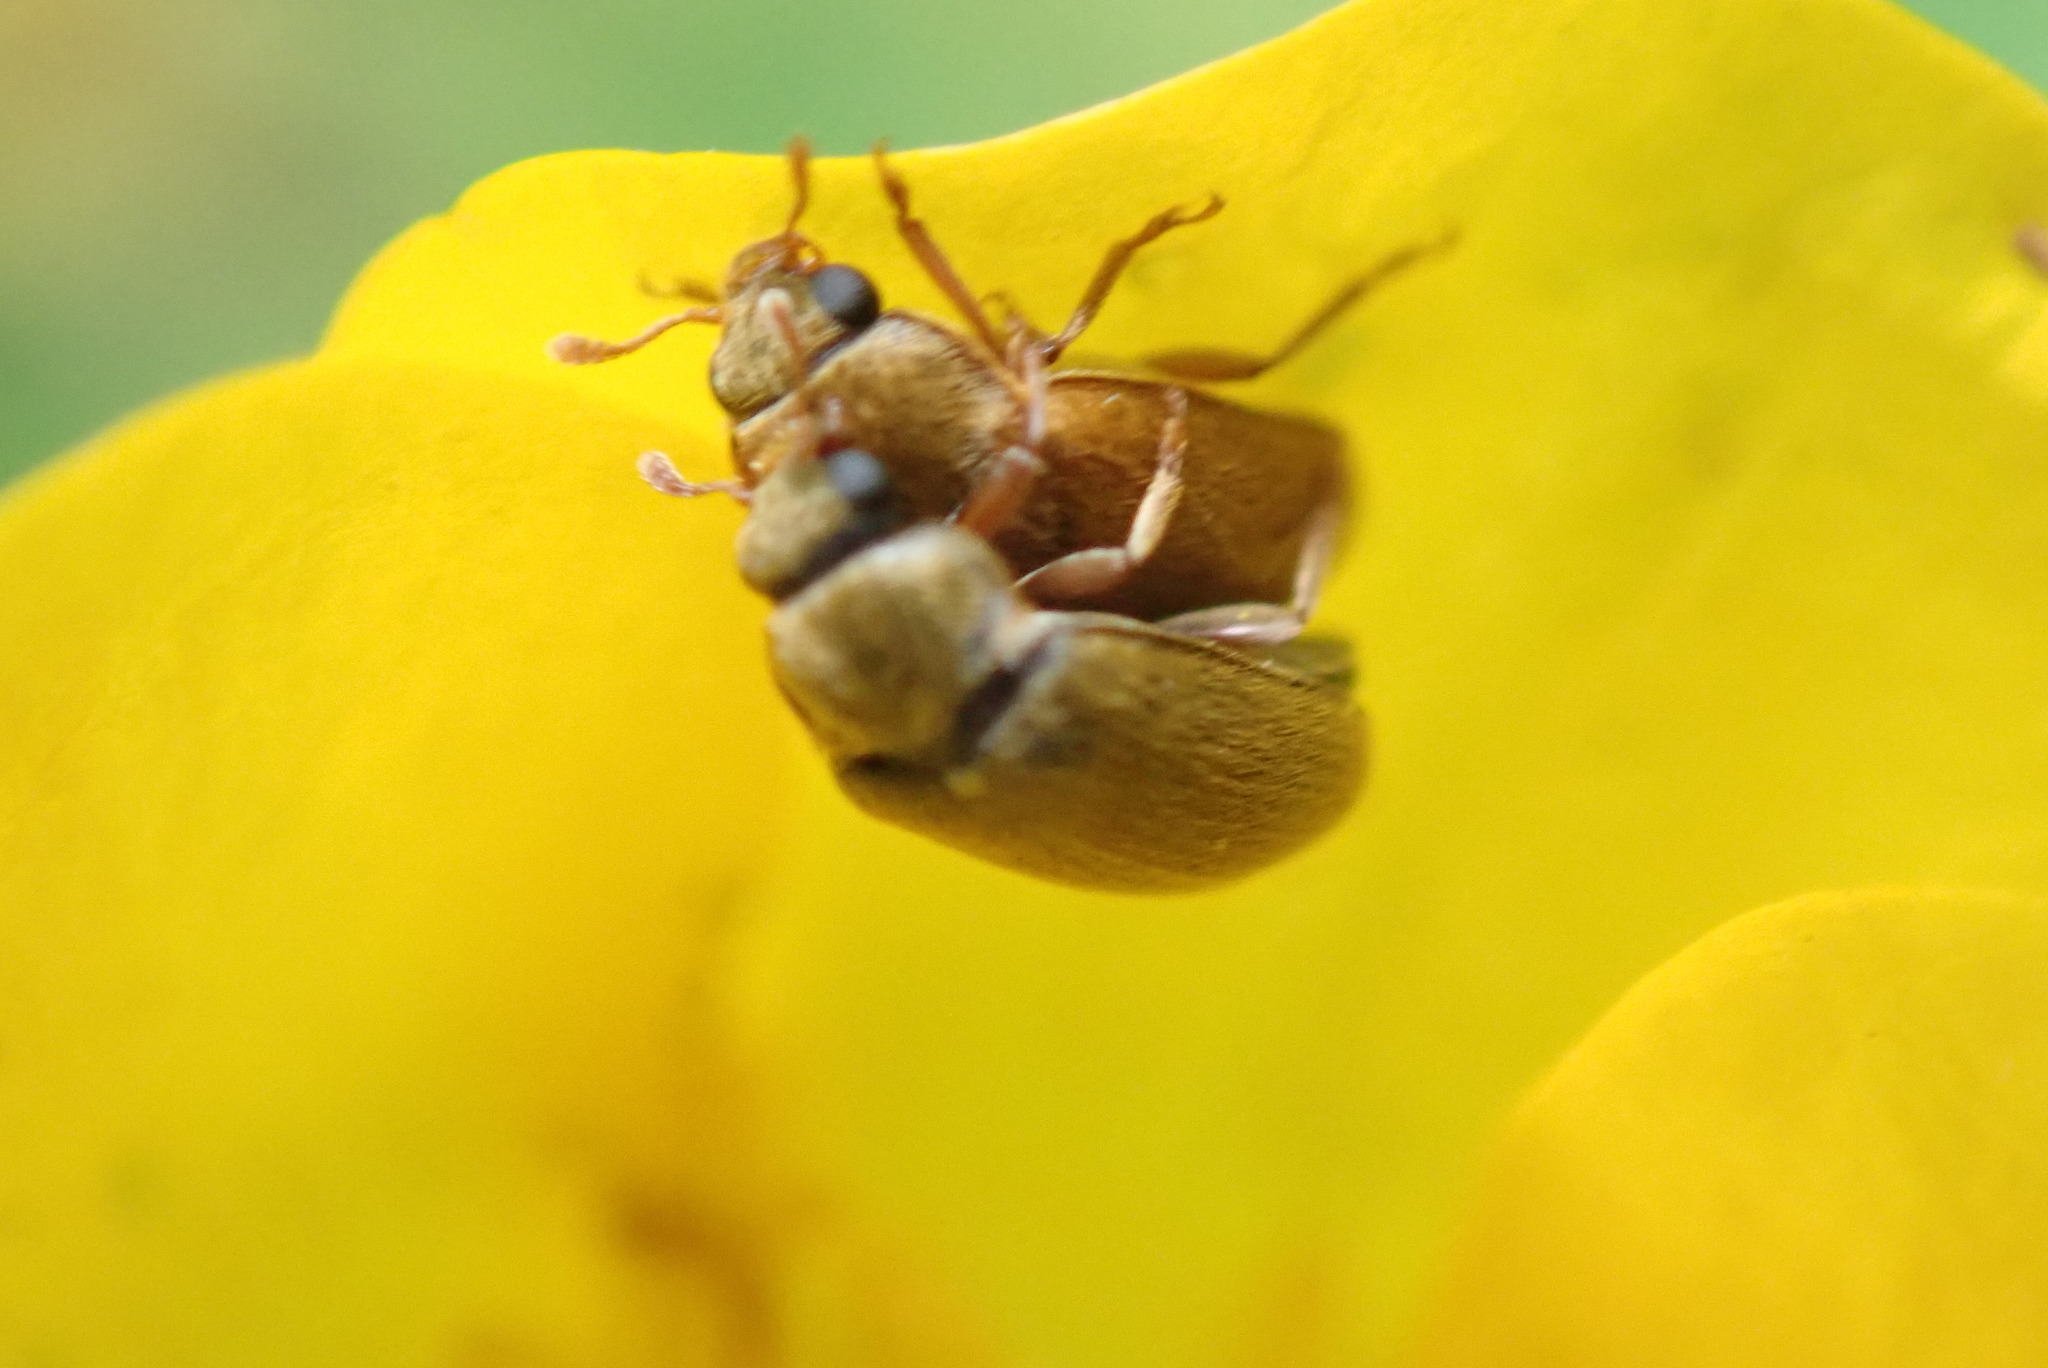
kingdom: Animalia
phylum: Arthropoda
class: Insecta
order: Coleoptera
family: Byturidae
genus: Byturus
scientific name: Byturus ochraceus
